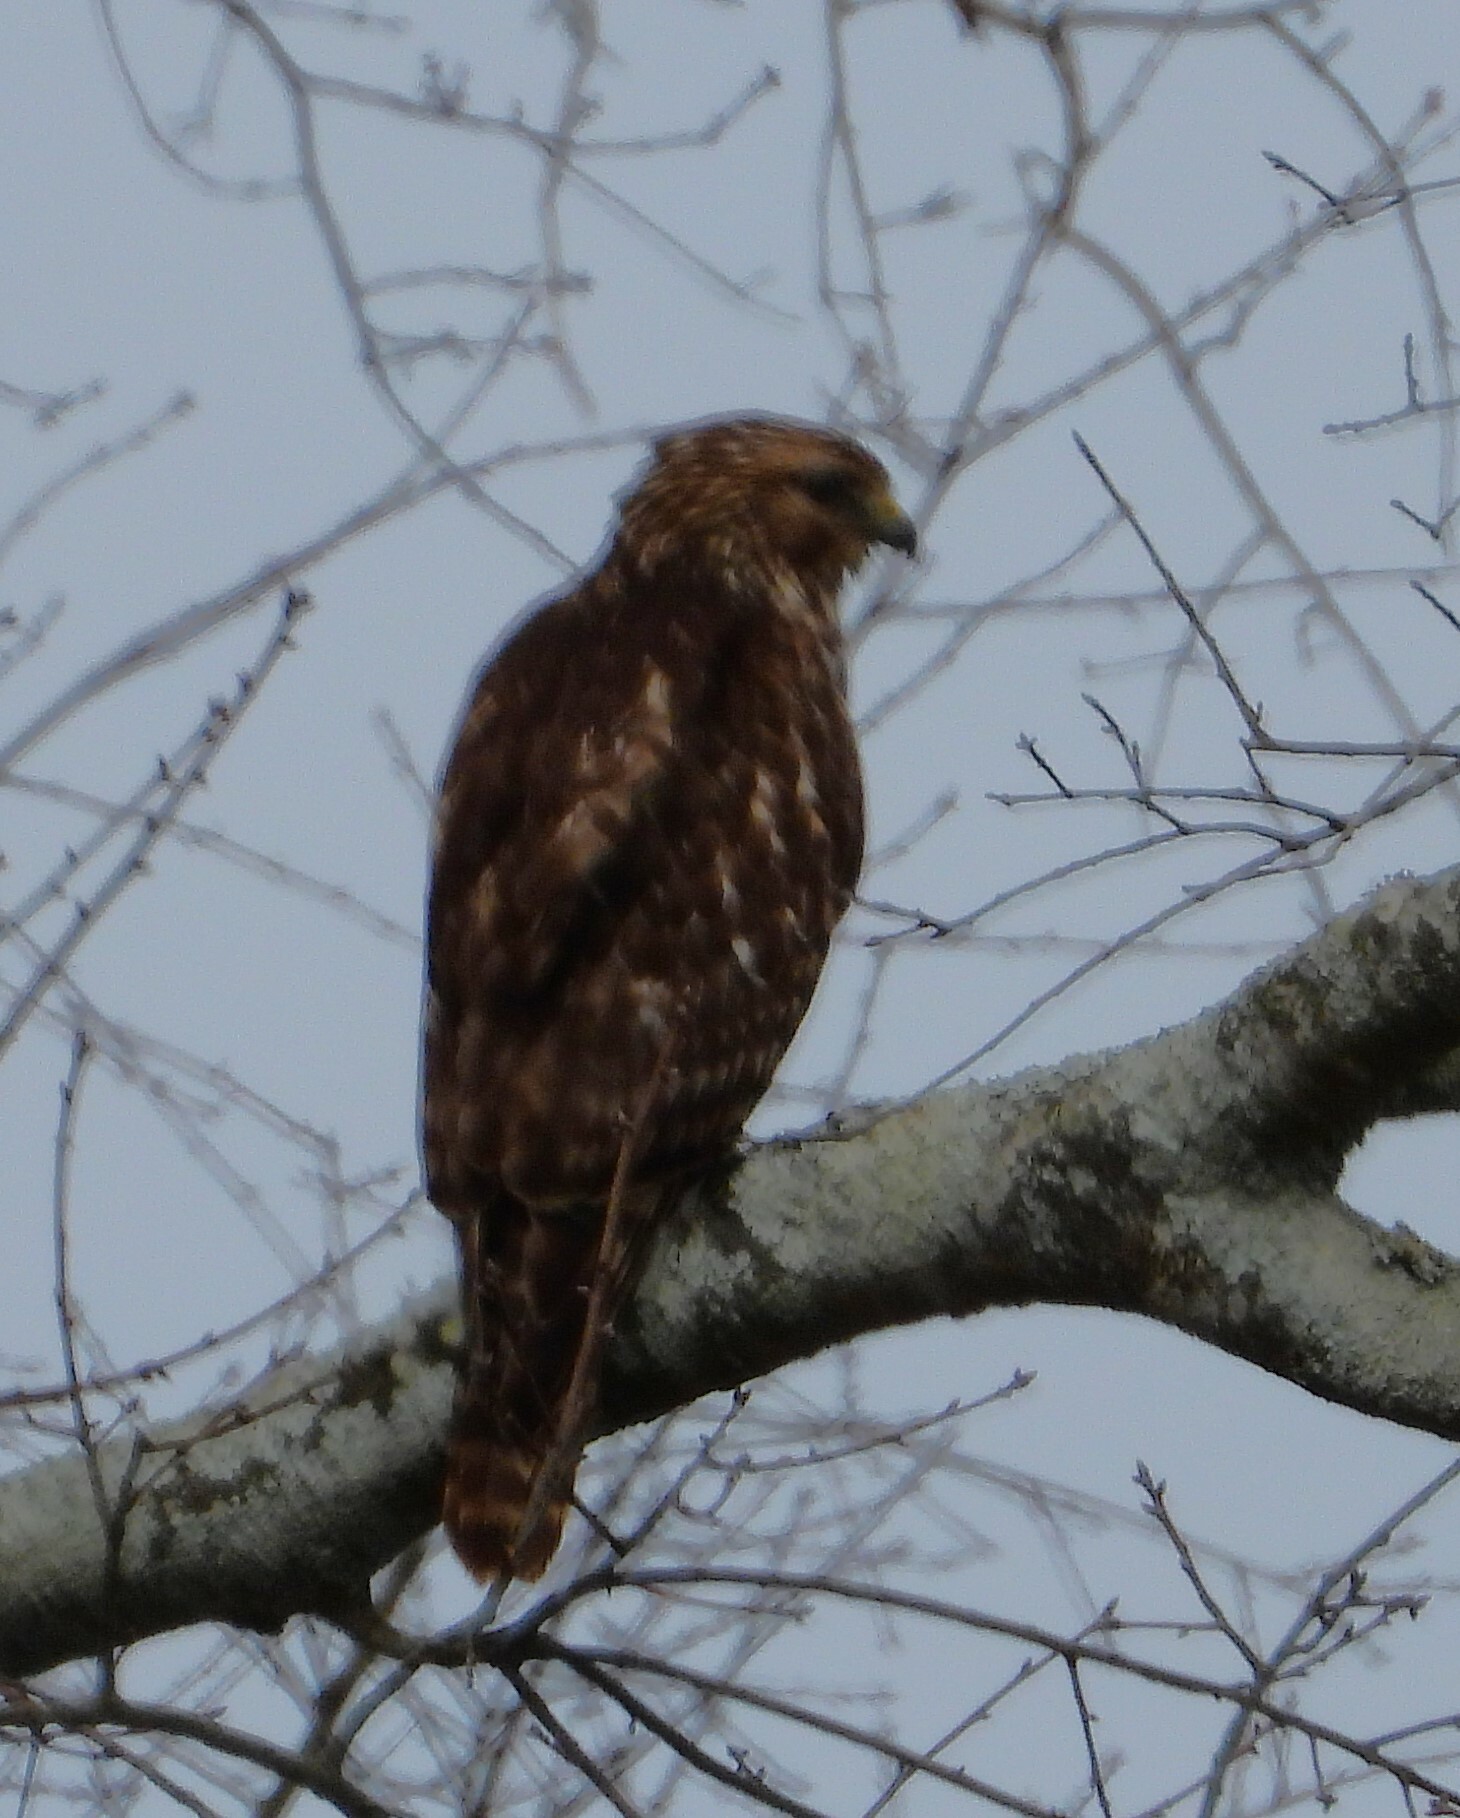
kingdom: Animalia
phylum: Chordata
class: Aves
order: Accipitriformes
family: Accipitridae
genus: Buteo
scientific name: Buteo lineatus
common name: Red-shouldered hawk
